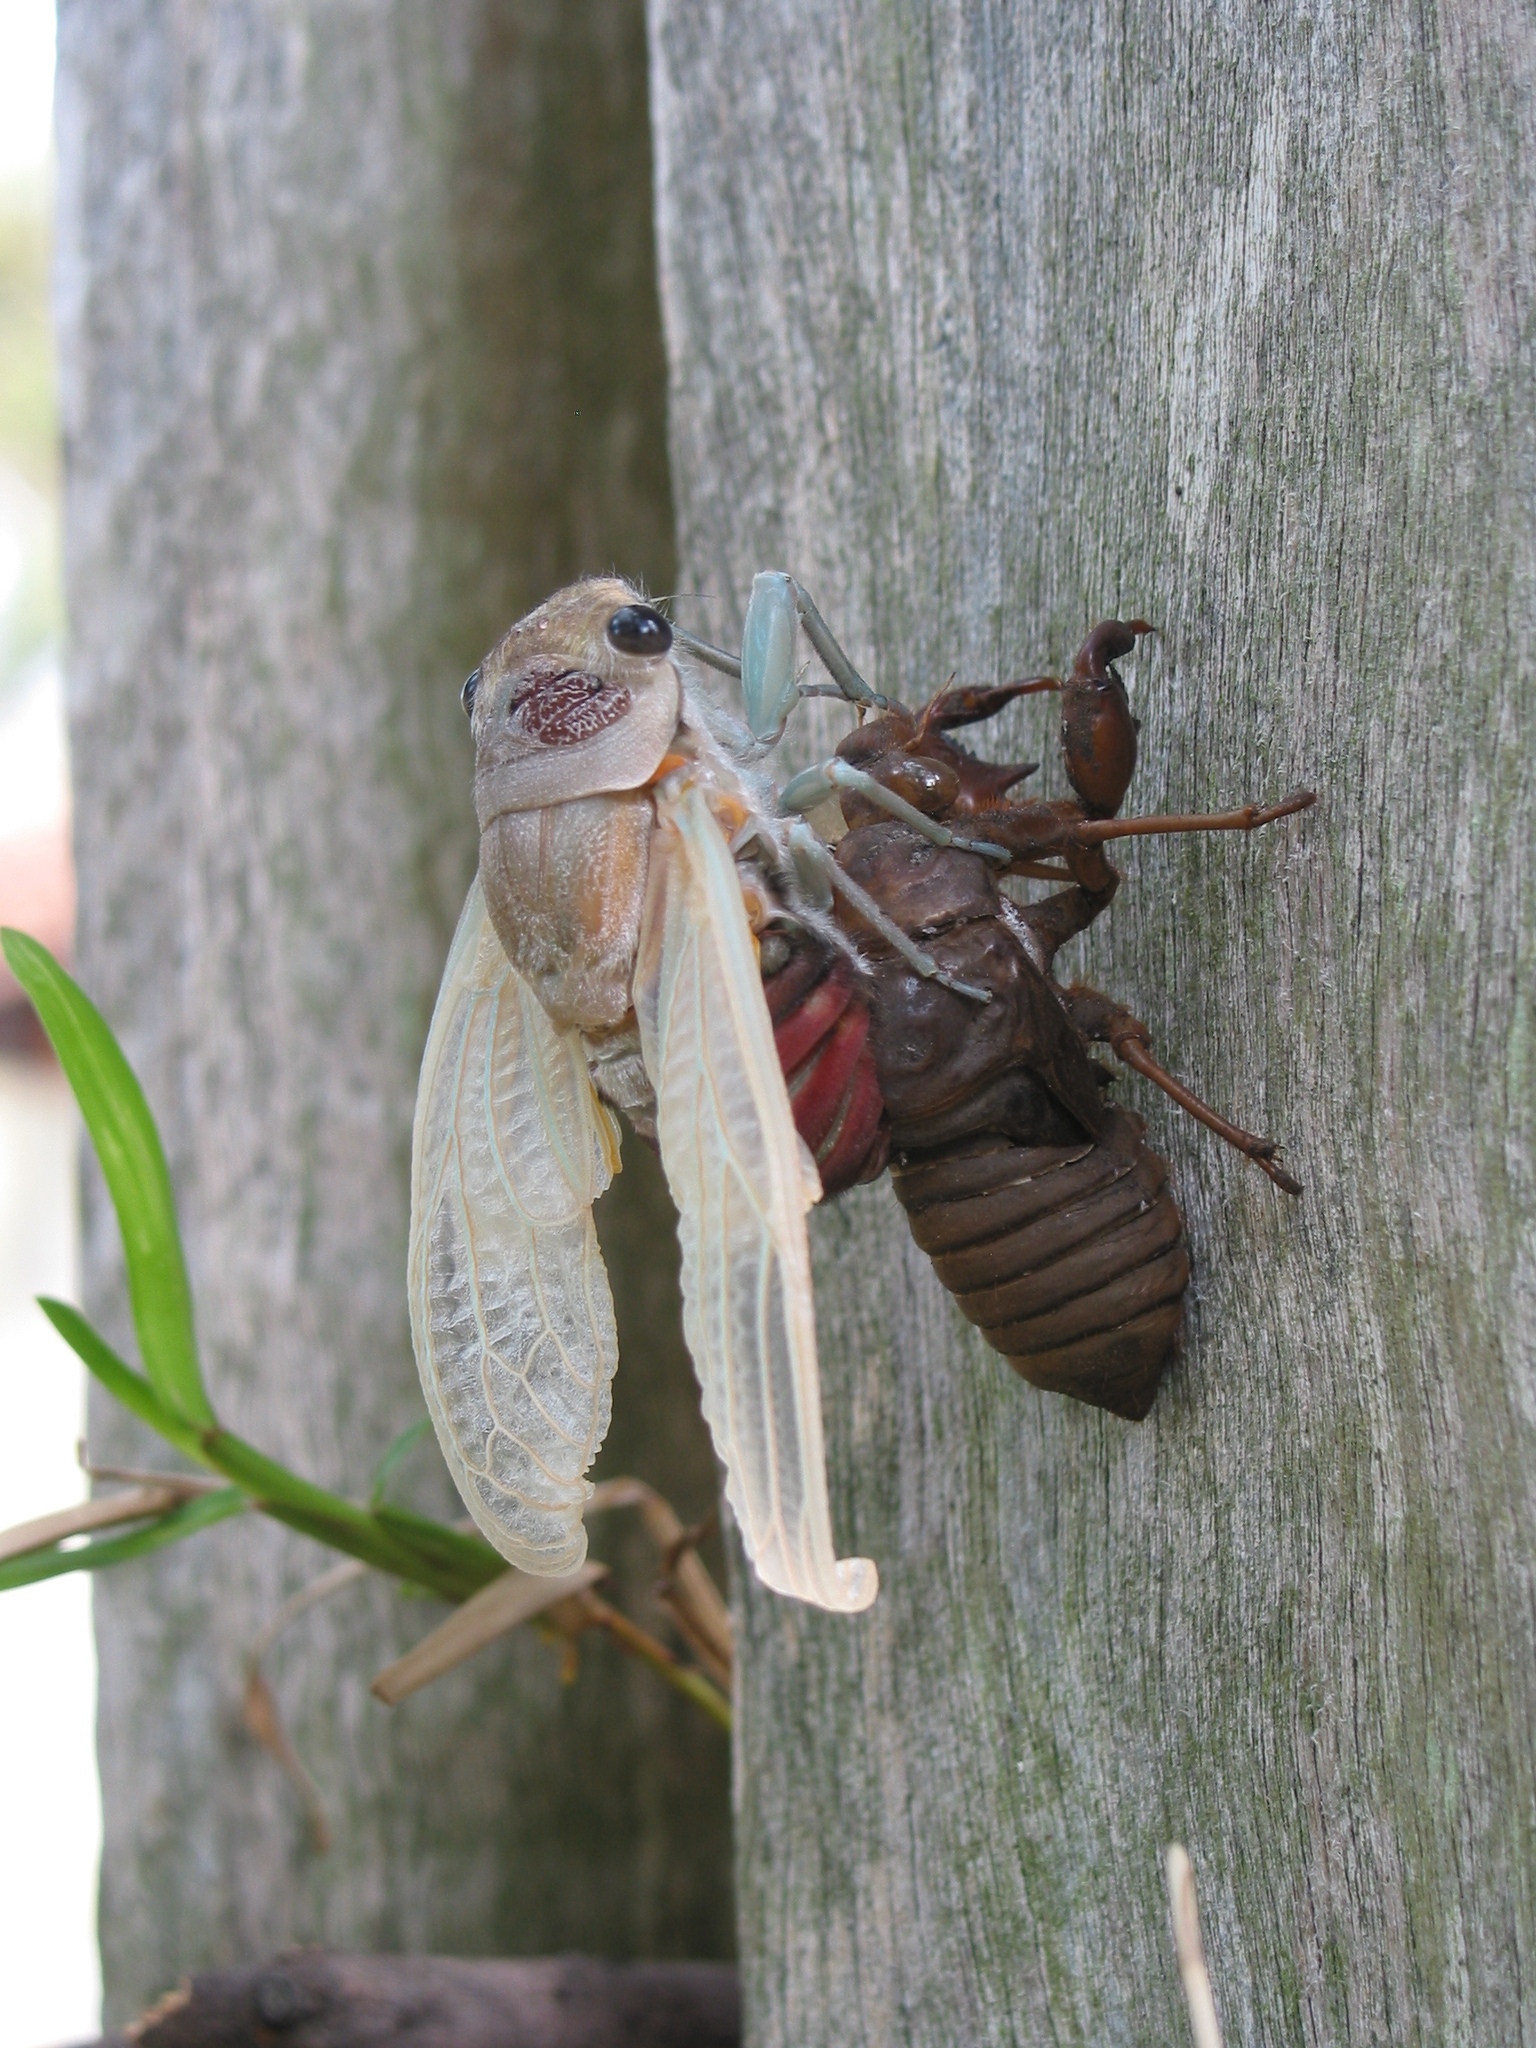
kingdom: Animalia
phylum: Arthropoda
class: Insecta
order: Hemiptera
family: Cicadidae
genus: Thopha
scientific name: Thopha saccata
